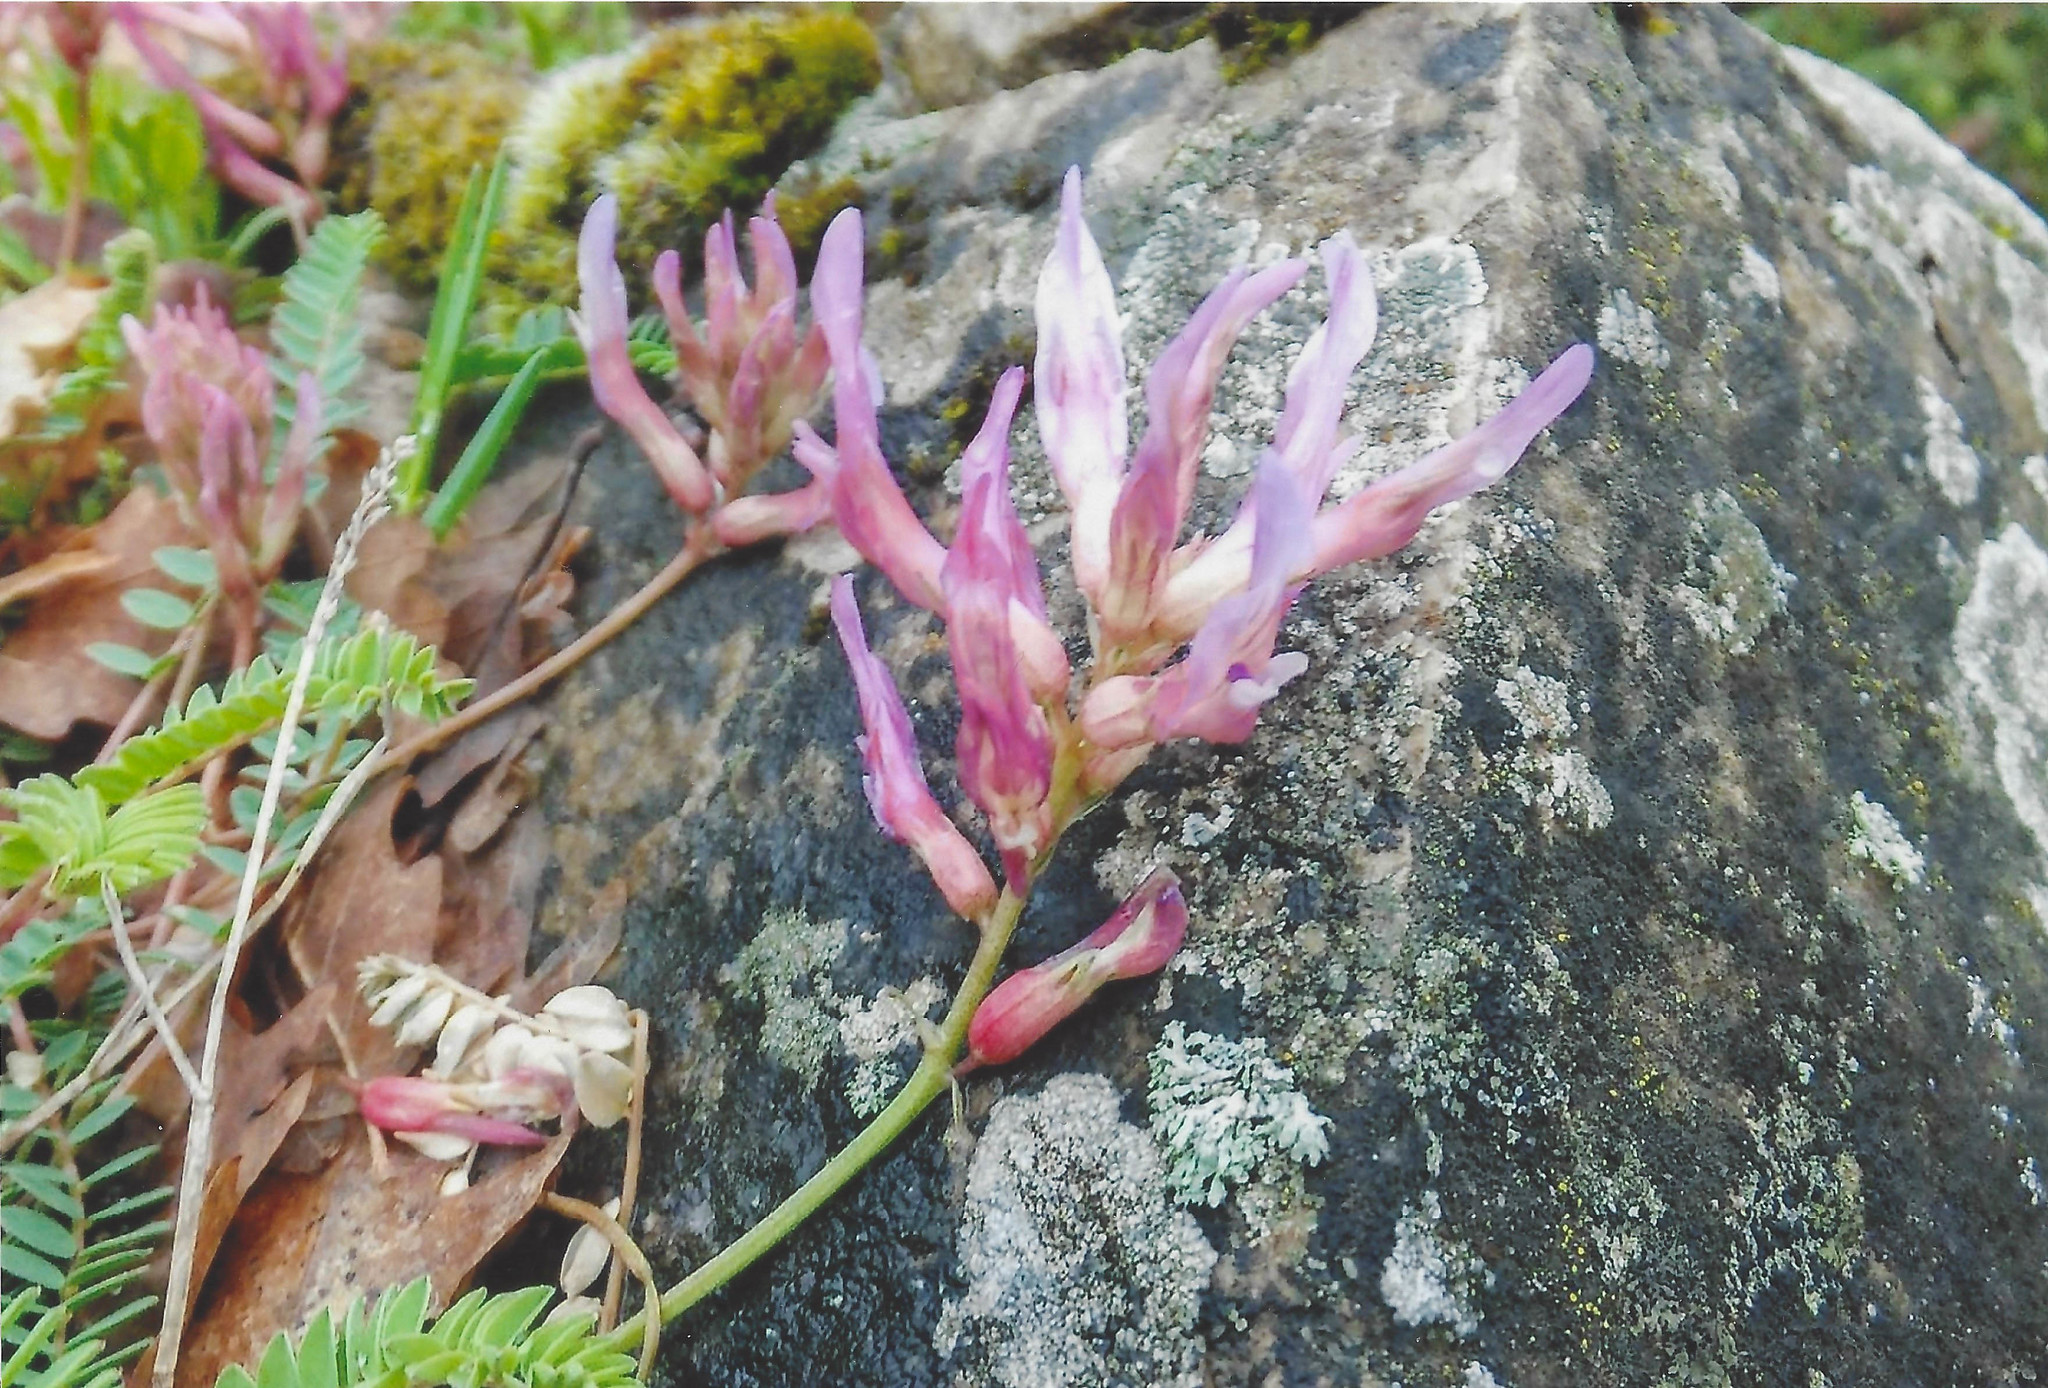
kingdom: Plantae
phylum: Tracheophyta
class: Magnoliopsida
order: Fabales
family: Fabaceae
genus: Astragalus
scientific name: Astragalus monspessulanus
